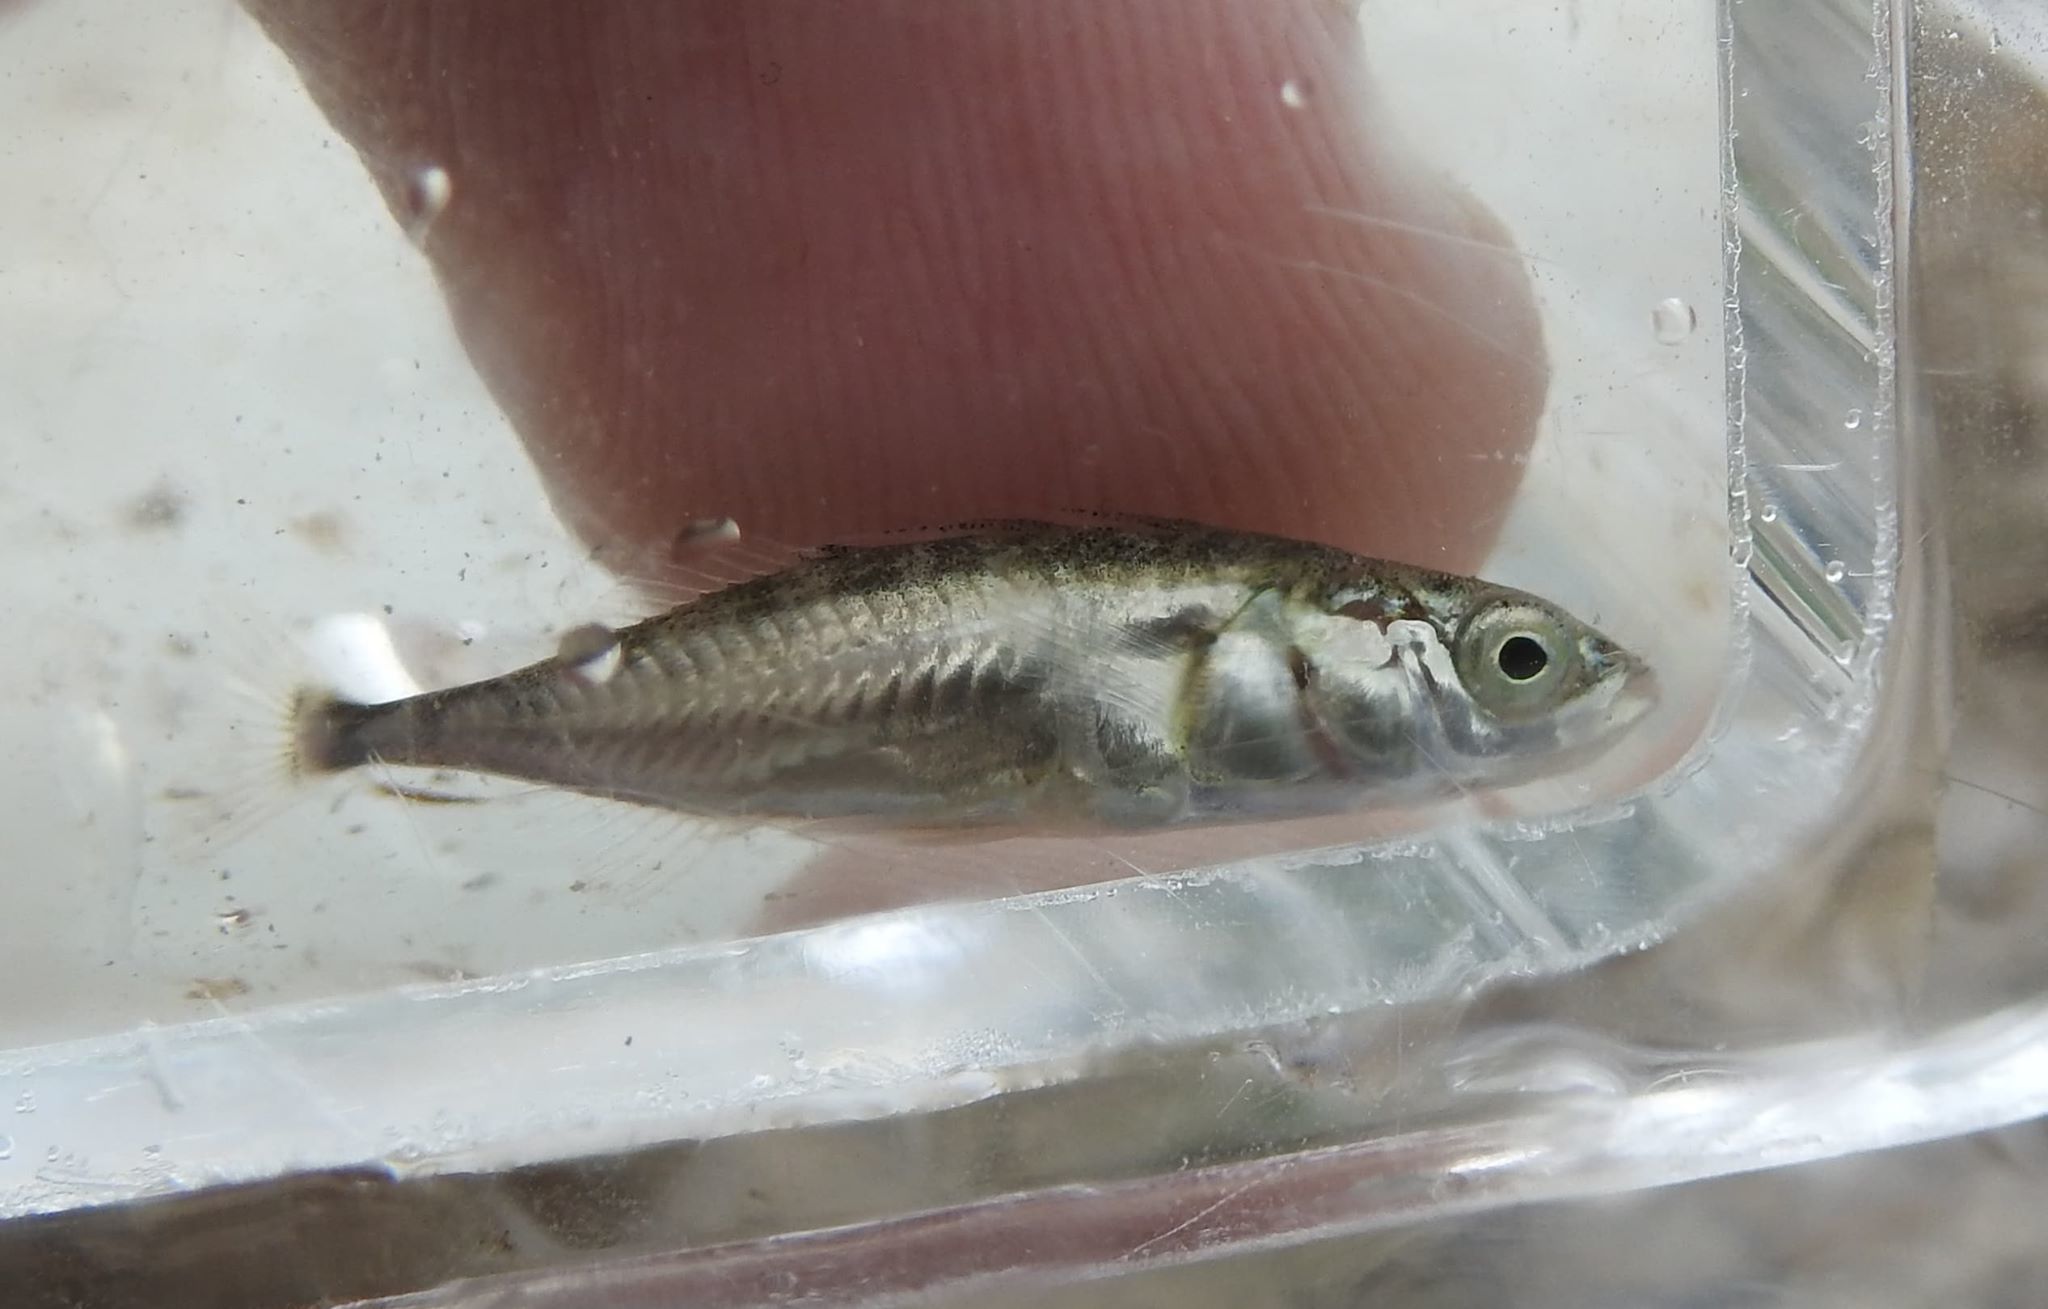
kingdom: Animalia
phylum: Chordata
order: Gasterosteiformes
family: Gasterosteidae
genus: Gasterosteus
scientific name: Gasterosteus aculeatus
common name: Three-spined stickleback
